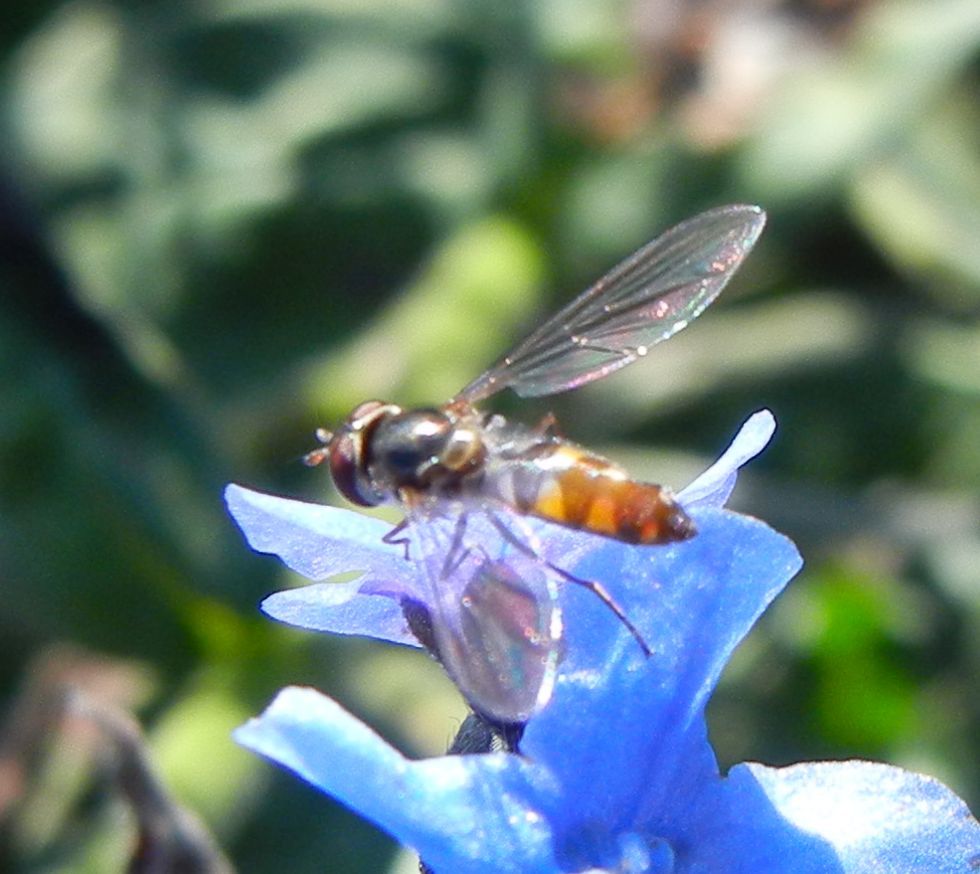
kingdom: Animalia
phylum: Arthropoda
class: Insecta
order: Diptera
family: Syrphidae
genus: Meliscaeva
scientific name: Meliscaeva auricollis
